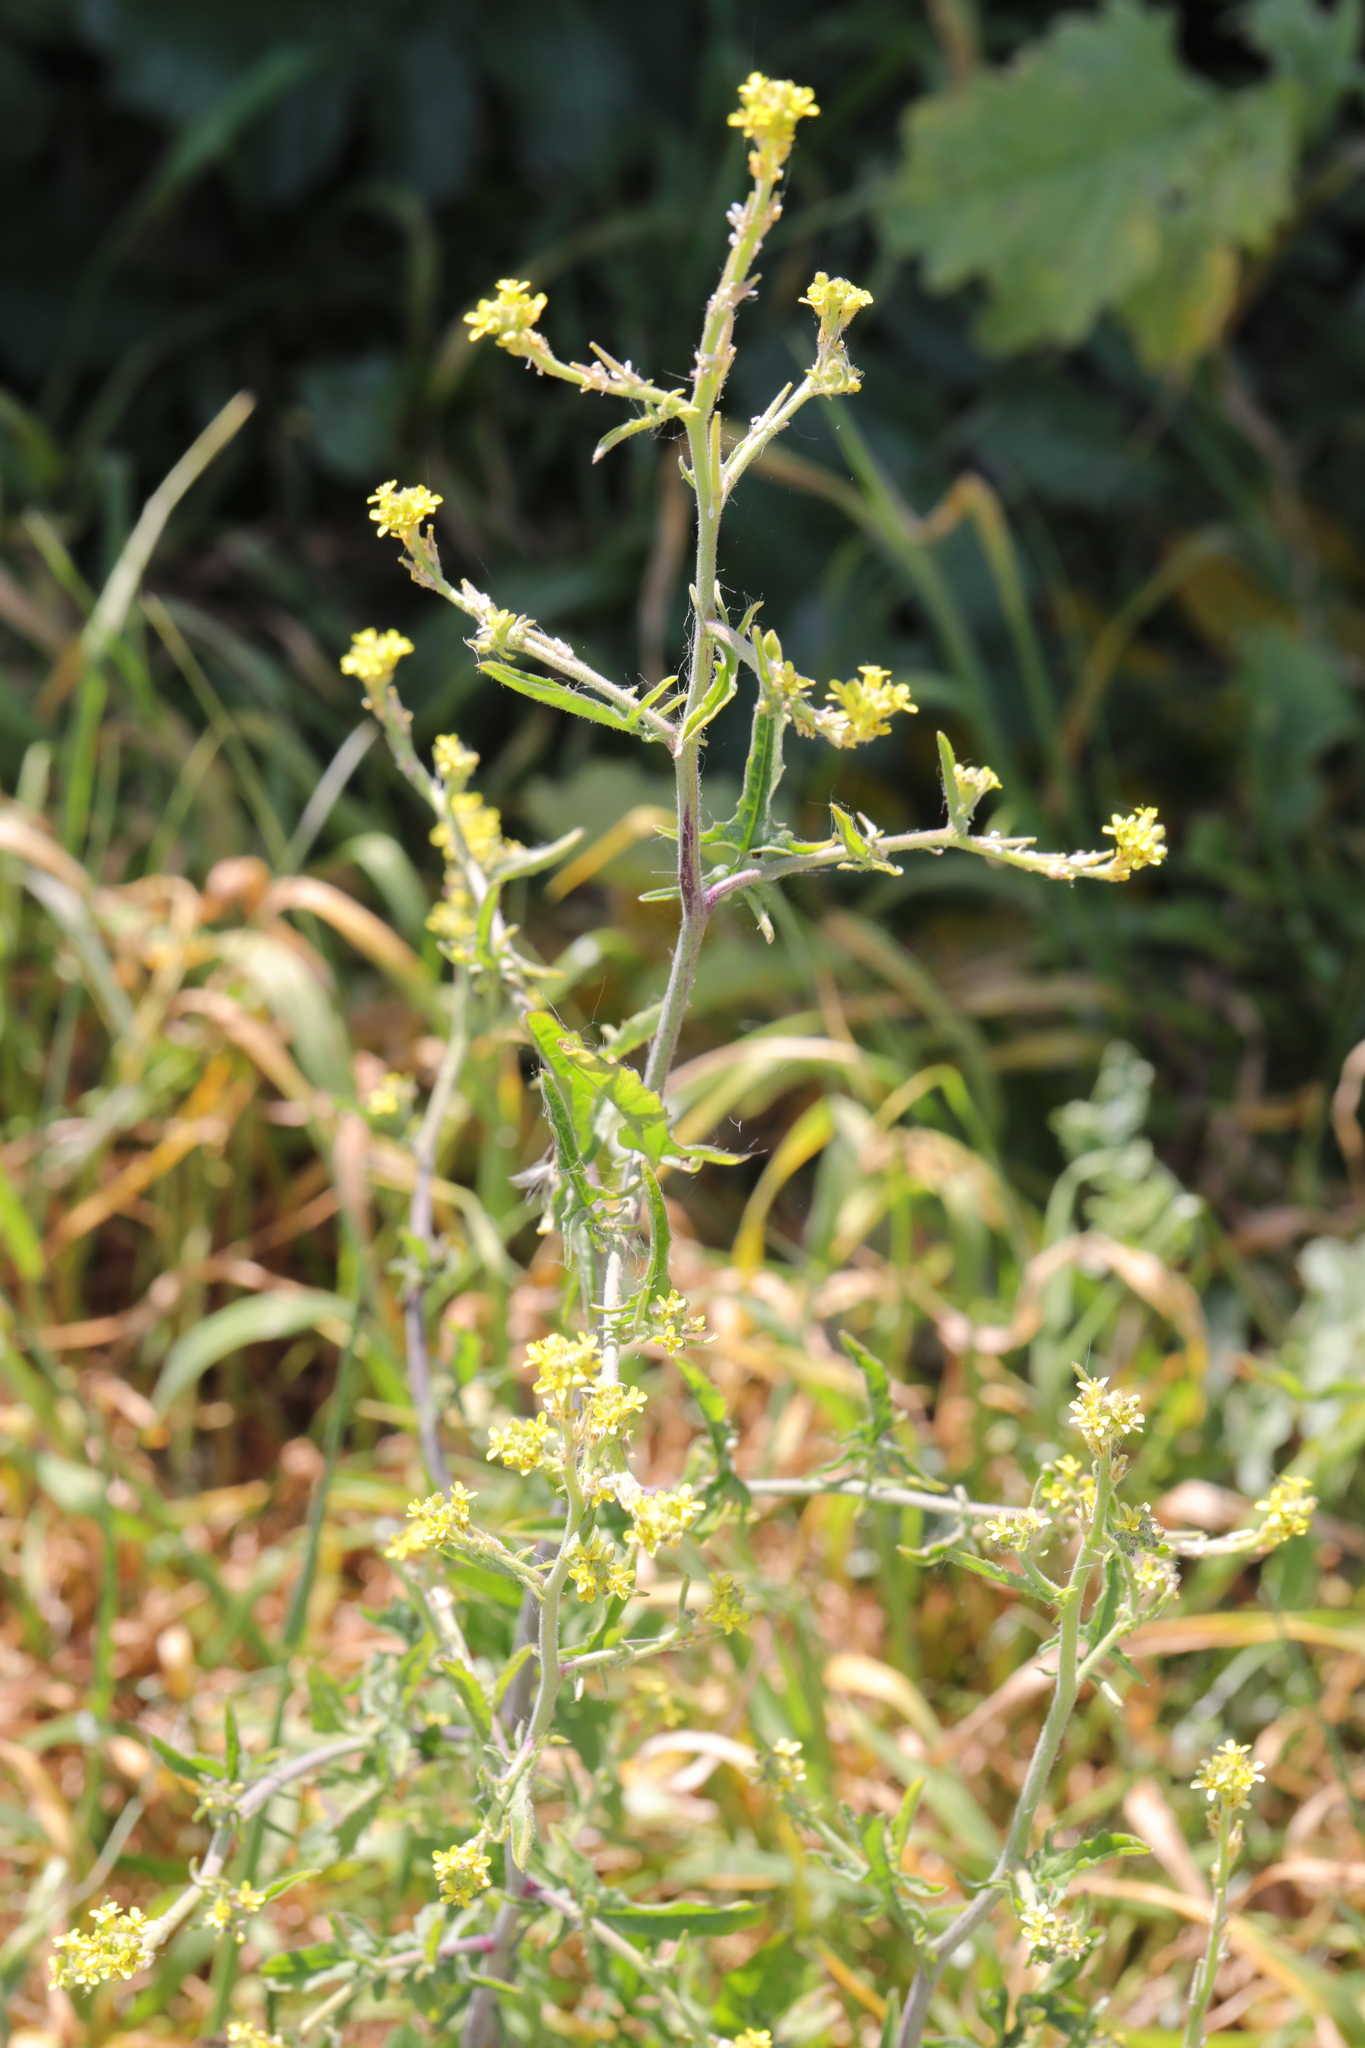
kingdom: Plantae
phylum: Tracheophyta
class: Magnoliopsida
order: Brassicales
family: Brassicaceae
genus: Sisymbrium
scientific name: Sisymbrium officinale
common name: Hedge mustard
